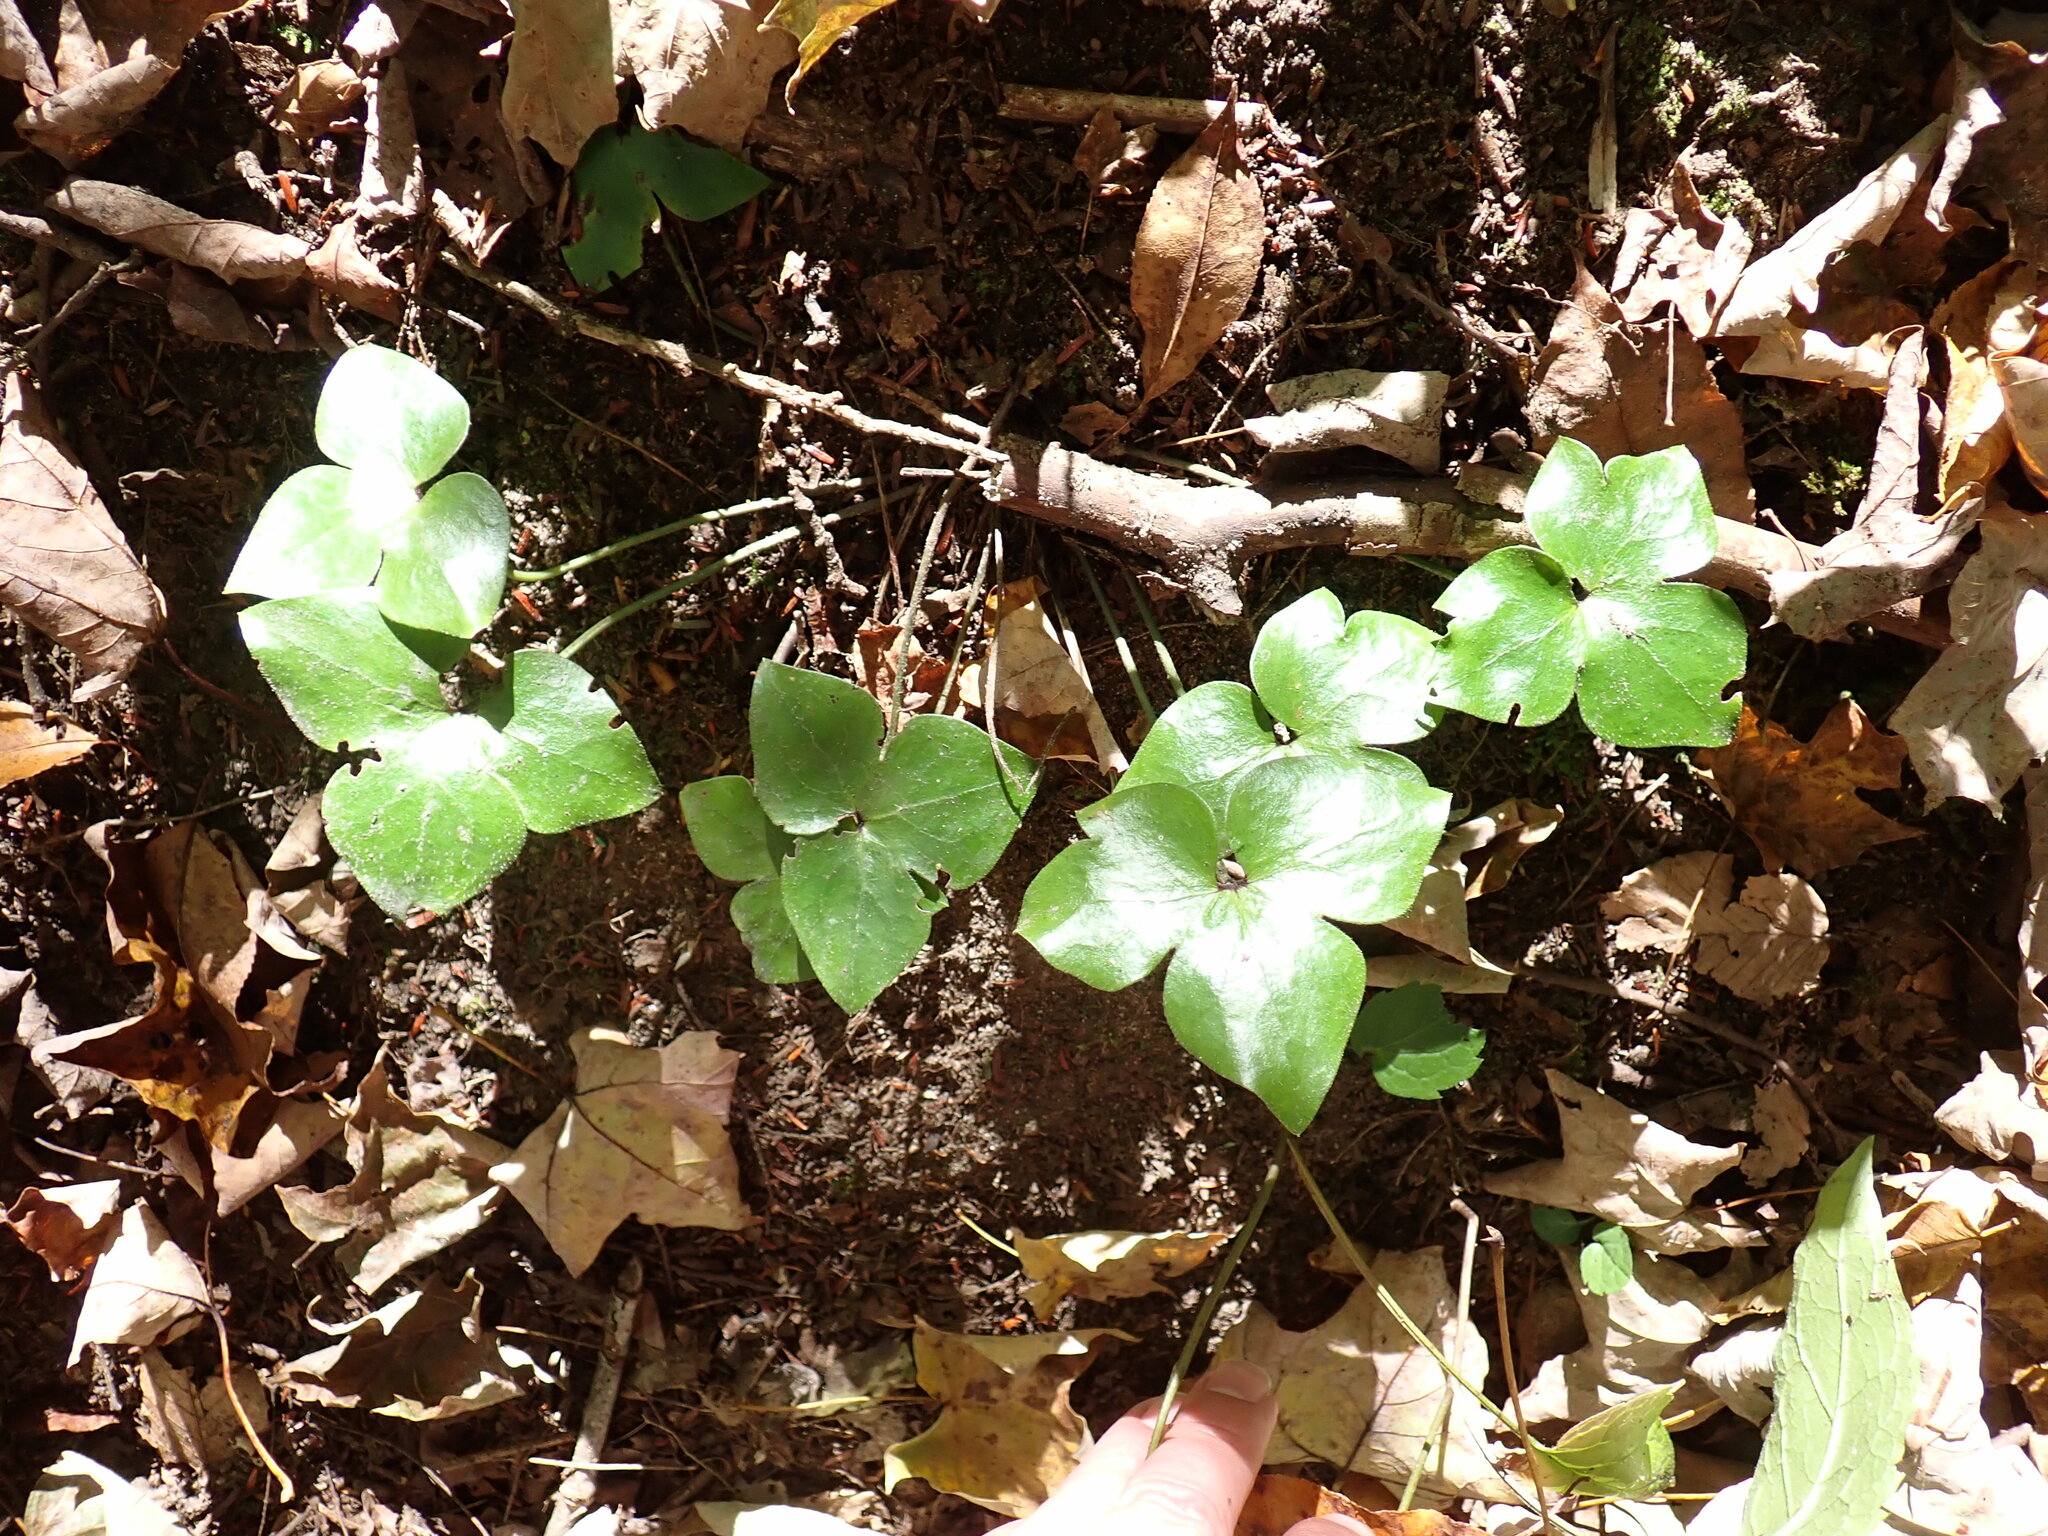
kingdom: Plantae
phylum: Tracheophyta
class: Magnoliopsida
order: Ranunculales
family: Ranunculaceae
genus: Hepatica
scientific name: Hepatica acutiloba
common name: Sharp-lobed hepatica
